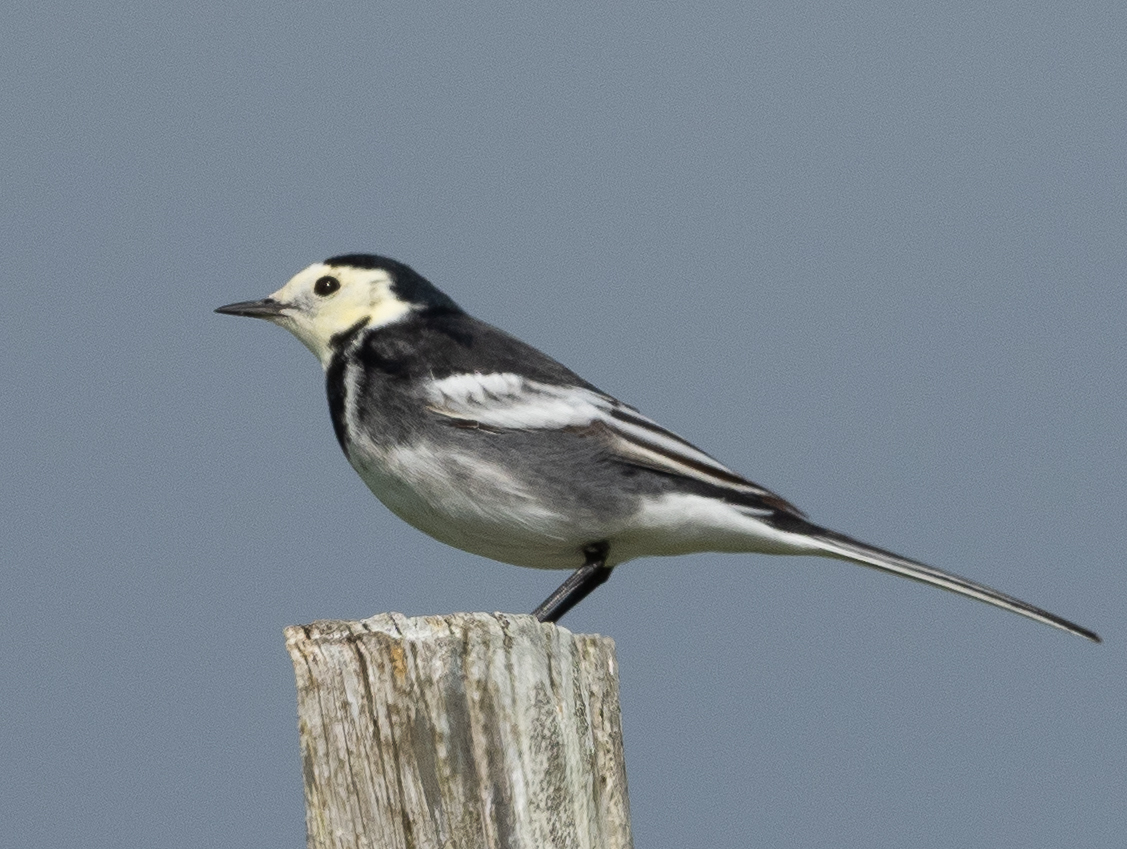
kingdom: Animalia
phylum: Chordata
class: Aves
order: Passeriformes
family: Motacillidae
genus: Motacilla
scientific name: Motacilla alba
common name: White wagtail
